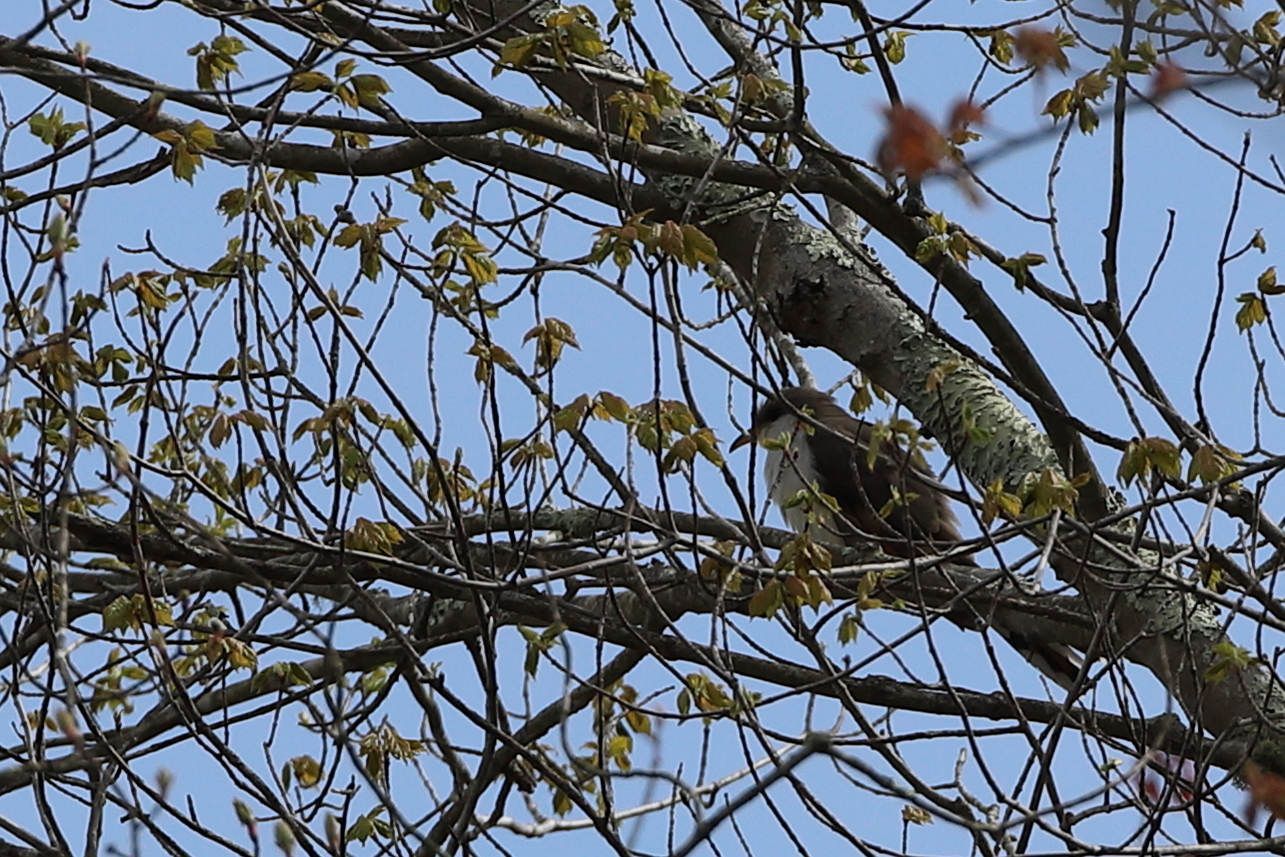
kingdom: Animalia
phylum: Chordata
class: Aves
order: Cuculiformes
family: Cuculidae
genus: Coccyzus
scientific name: Coccyzus americanus
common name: Yellow-billed cuckoo
